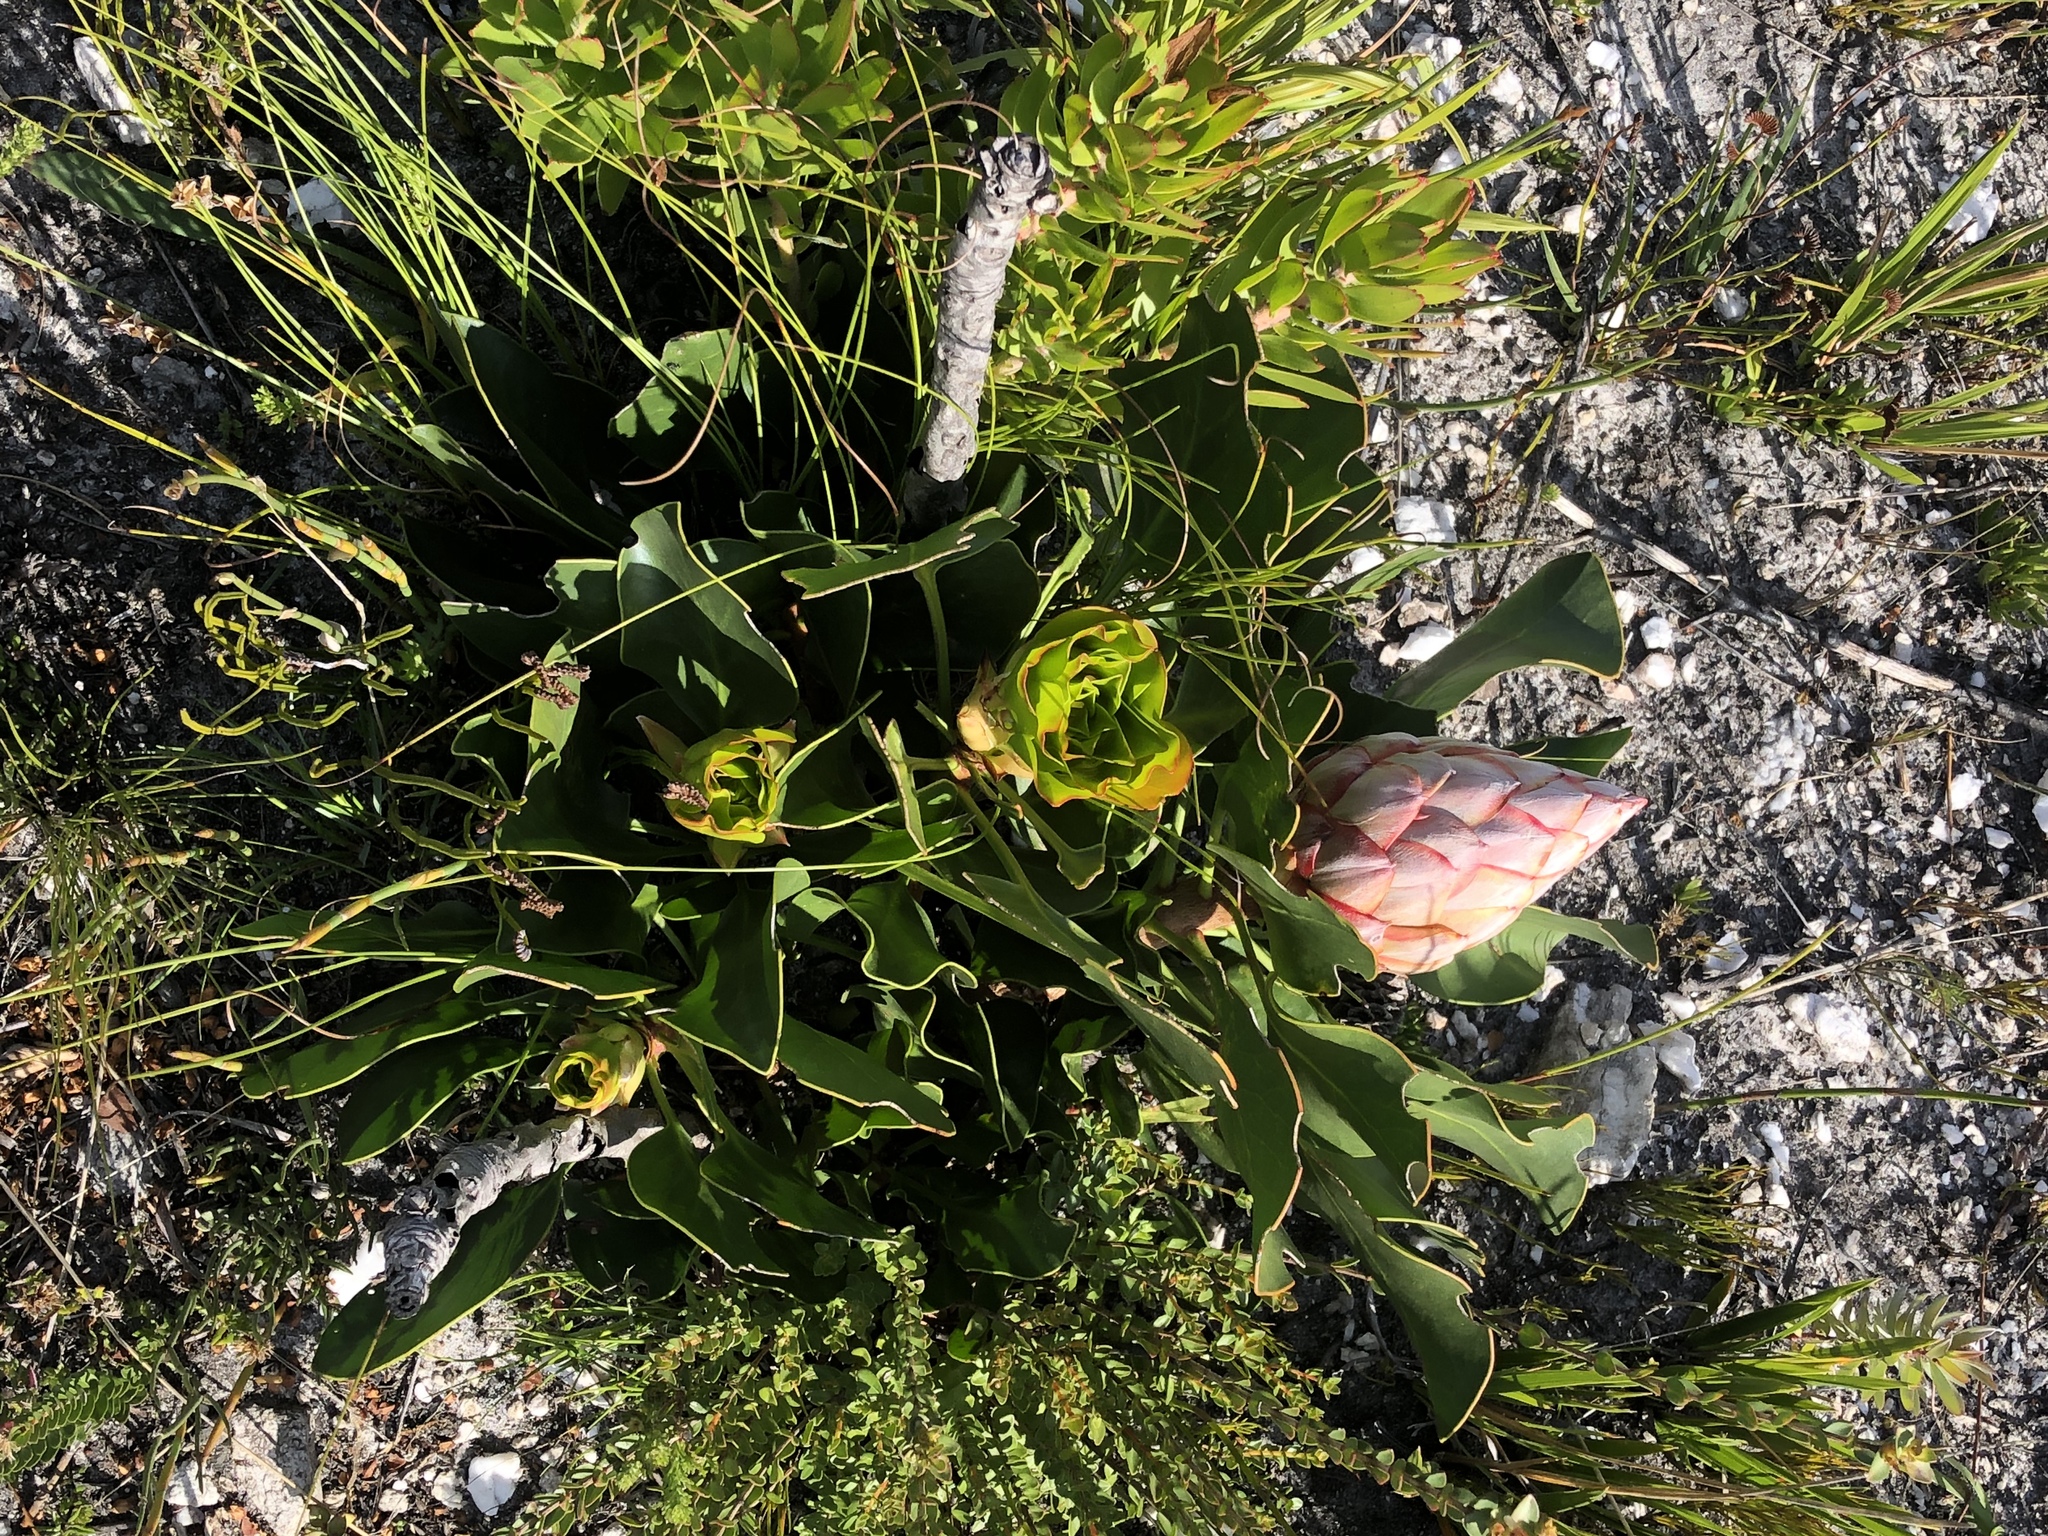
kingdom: Plantae
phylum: Tracheophyta
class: Magnoliopsida
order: Proteales
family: Proteaceae
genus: Protea
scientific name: Protea cynaroides
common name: King protea
